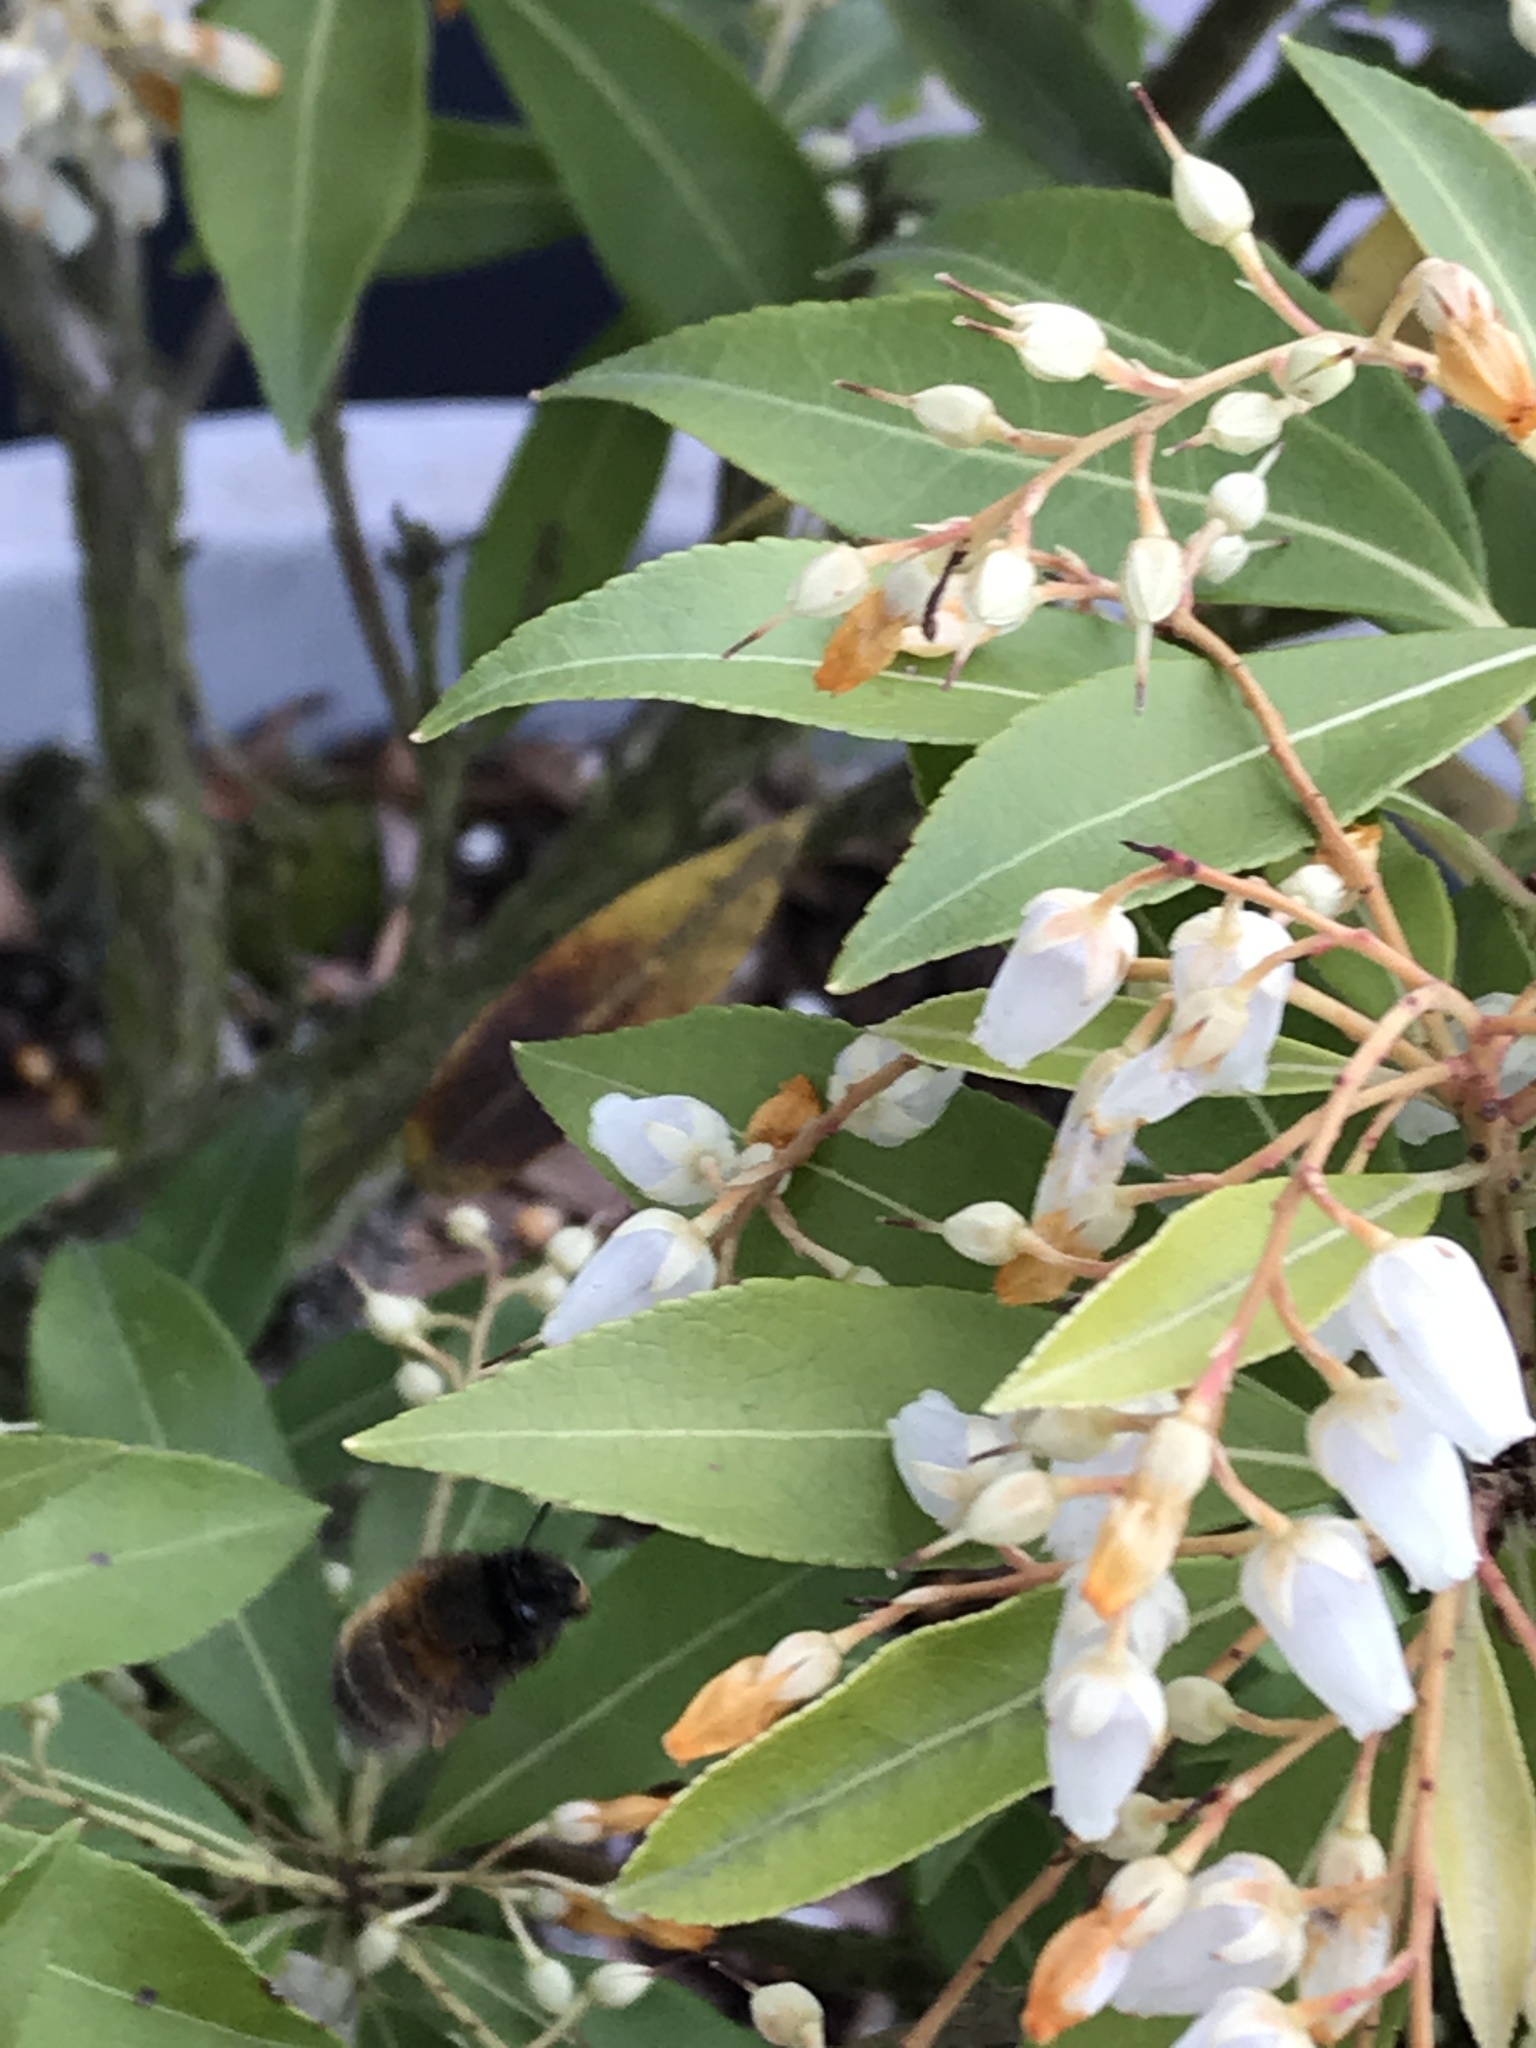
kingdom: Animalia
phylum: Arthropoda
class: Insecta
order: Hymenoptera
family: Apidae
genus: Anthophora
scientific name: Anthophora plumipes
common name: Hairy-footed flower bee
